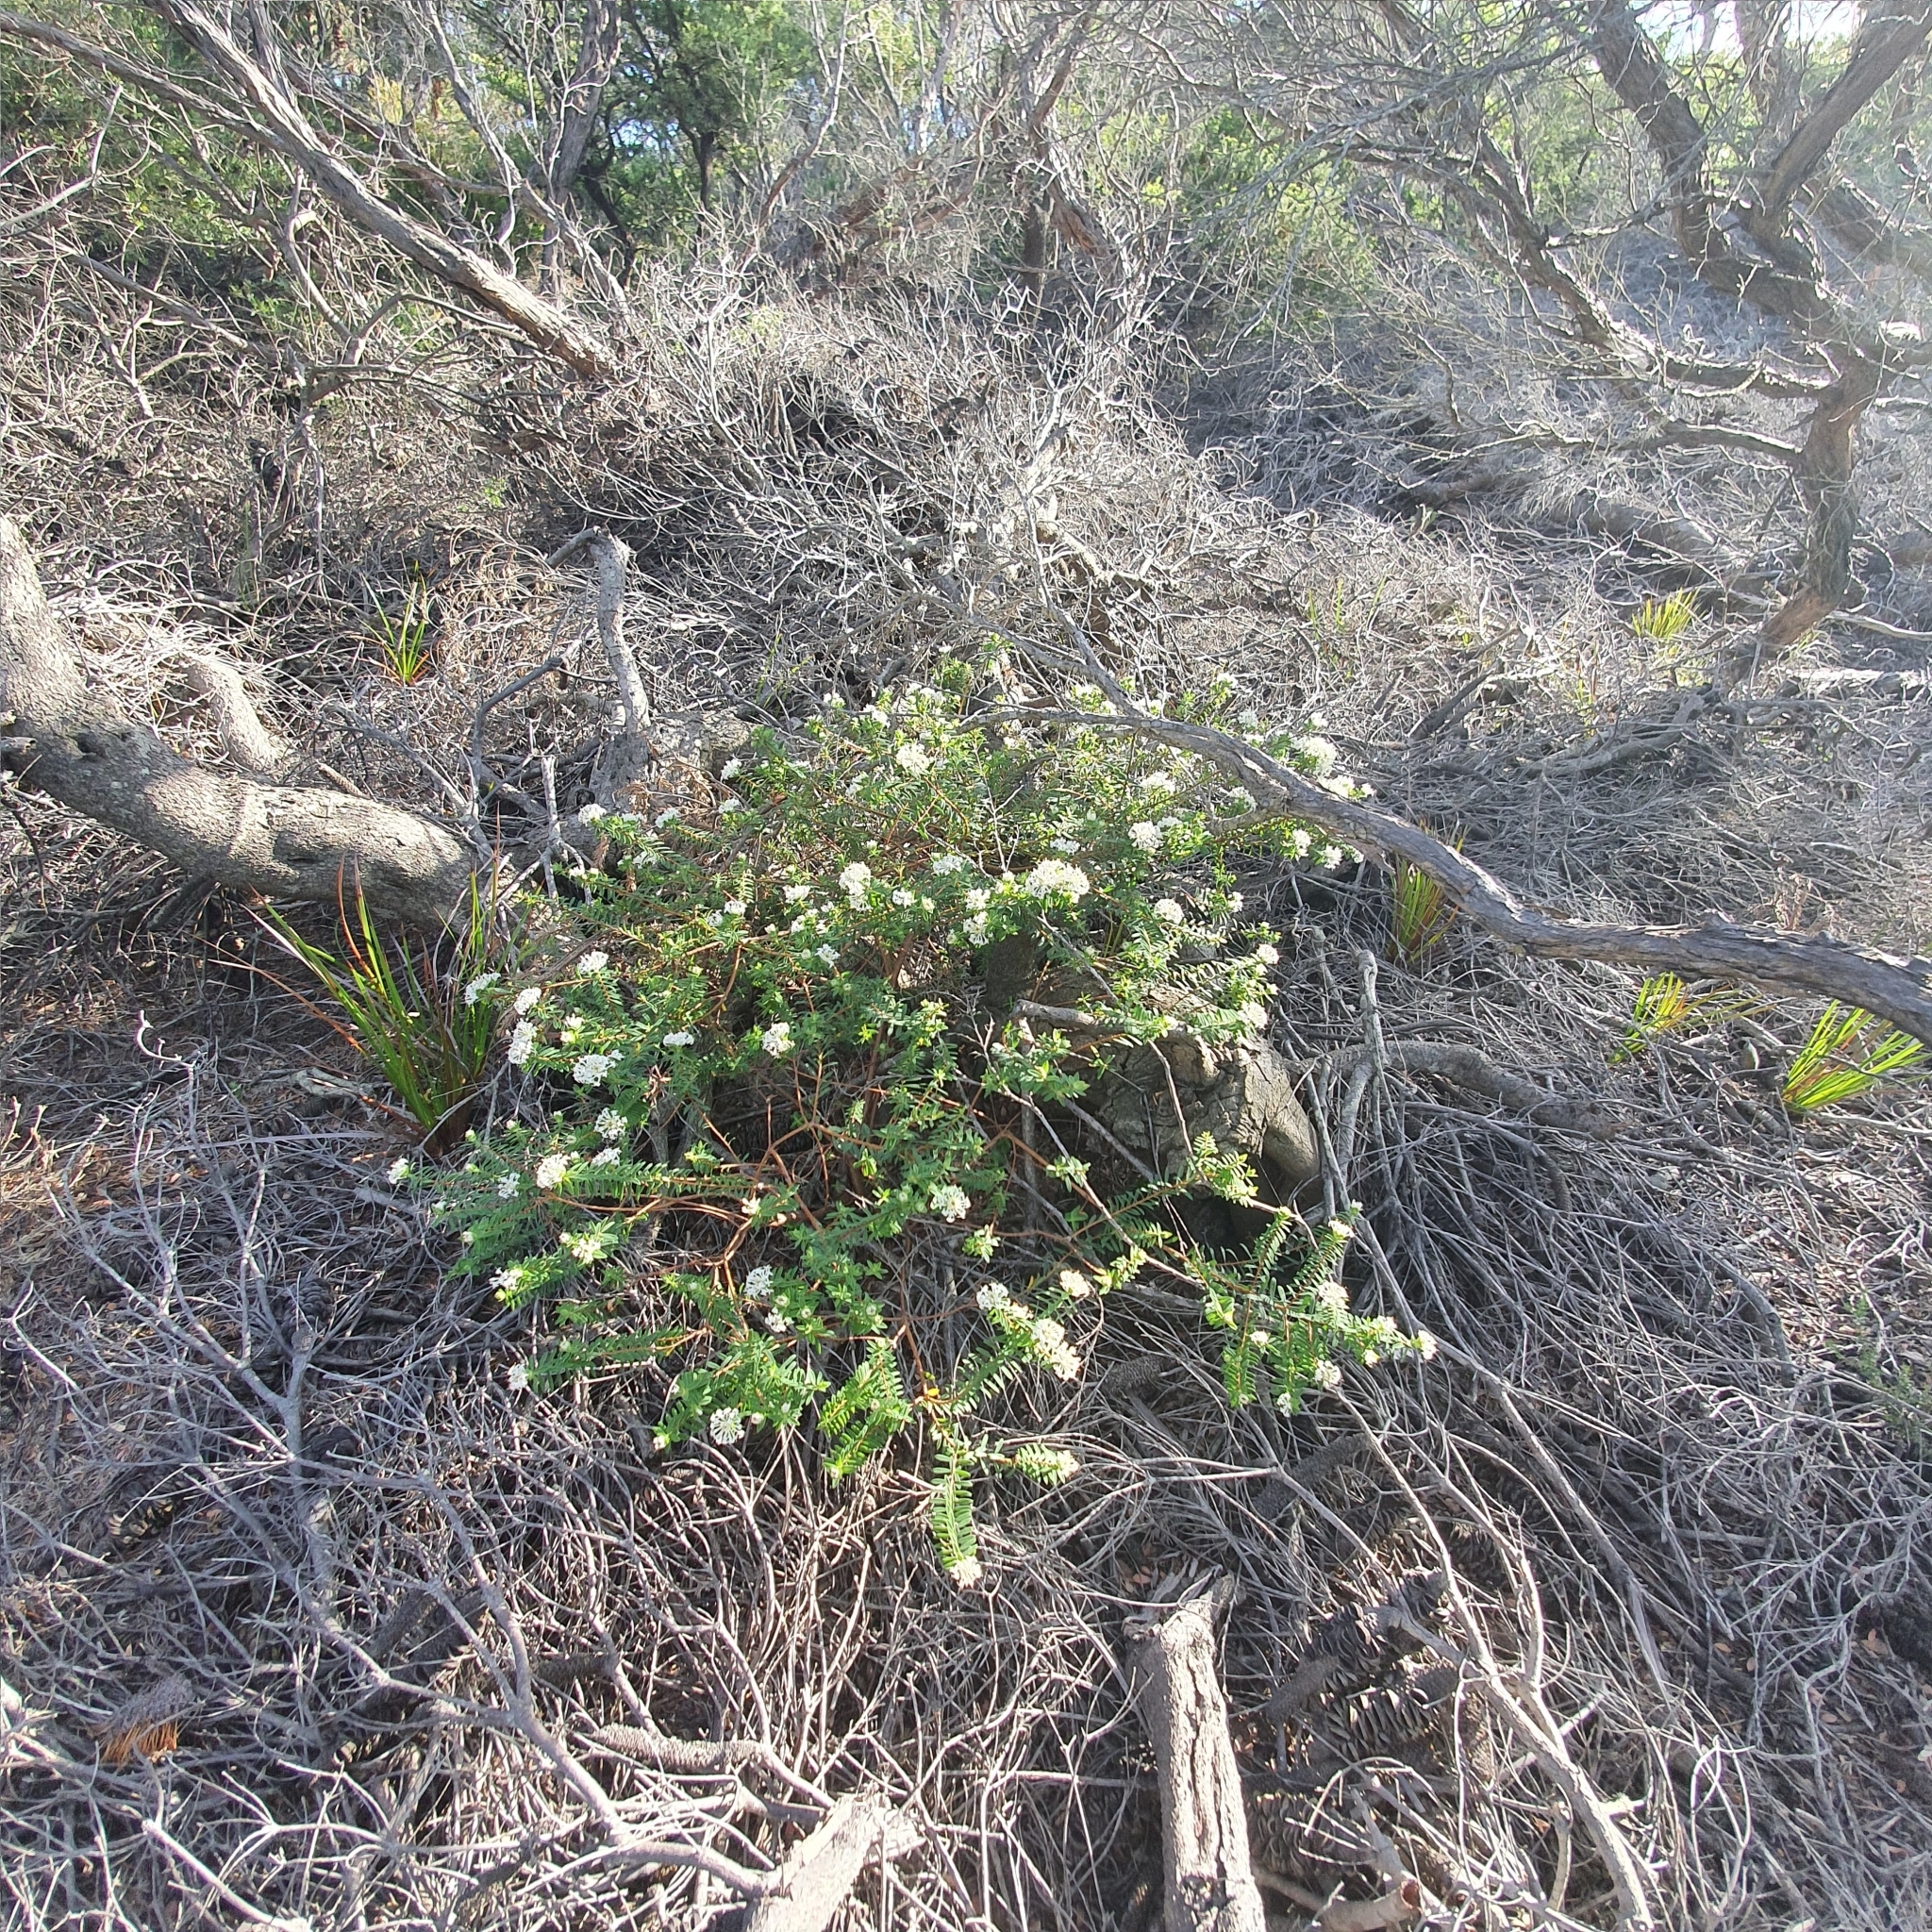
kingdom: Plantae
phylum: Tracheophyta
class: Magnoliopsida
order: Malvales
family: Thymelaeaceae
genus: Pimelea
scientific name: Pimelea linifolia
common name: Queen-of-the-bush
